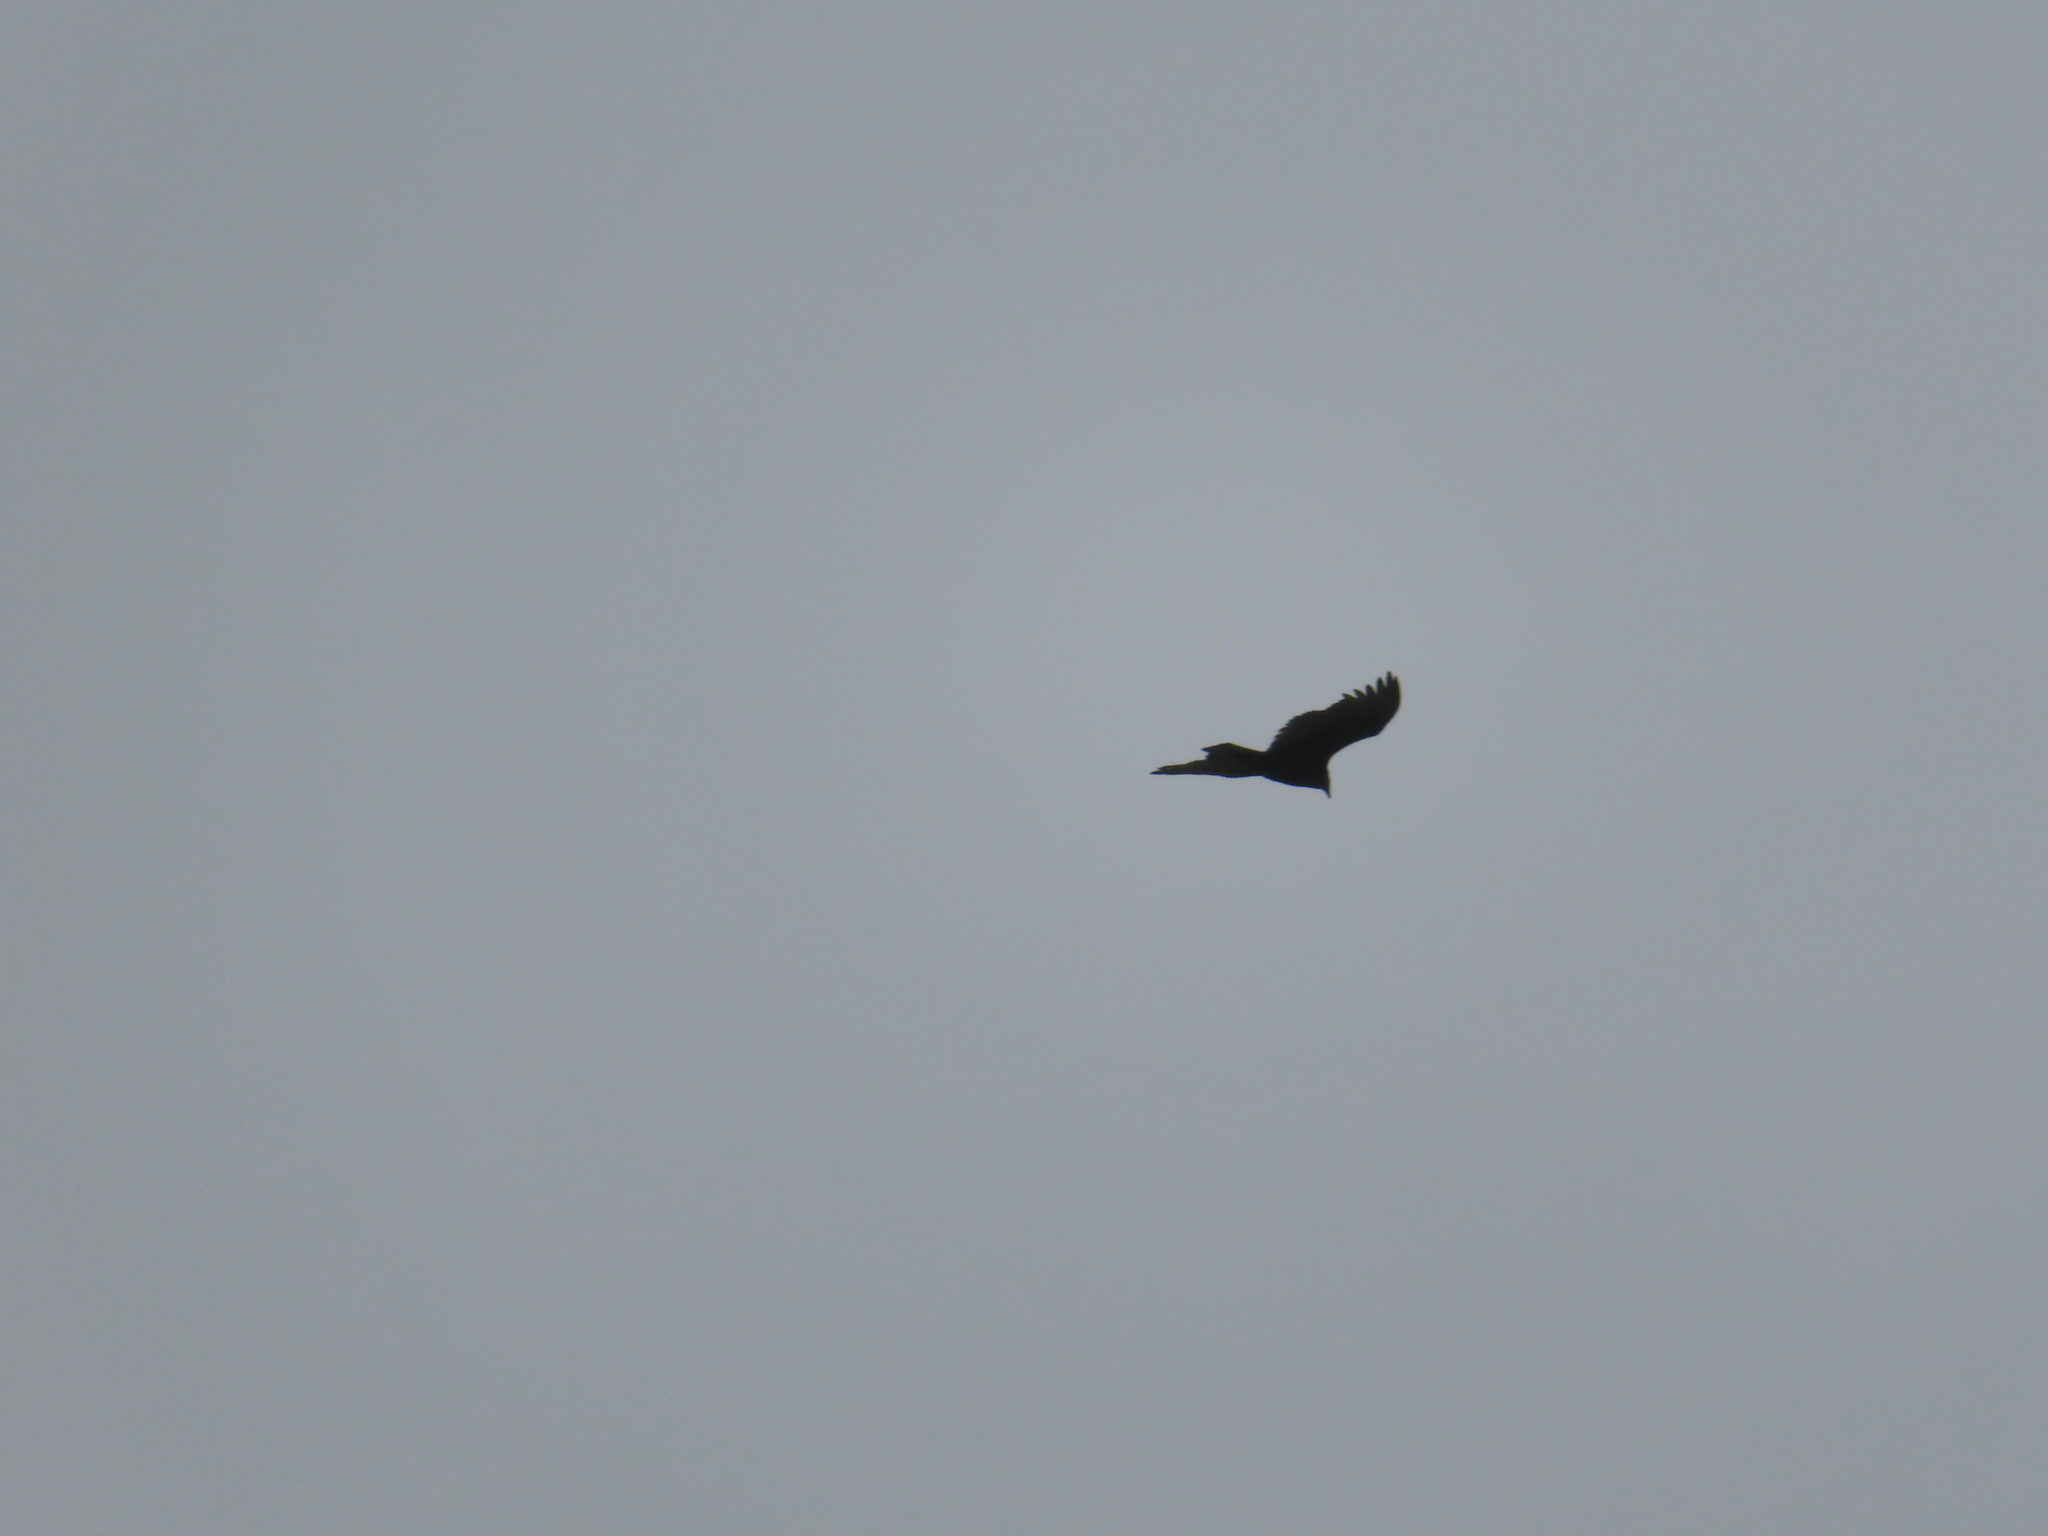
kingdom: Animalia
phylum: Chordata
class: Aves
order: Accipitriformes
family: Cathartidae
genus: Cathartes
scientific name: Cathartes aura
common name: Turkey vulture
